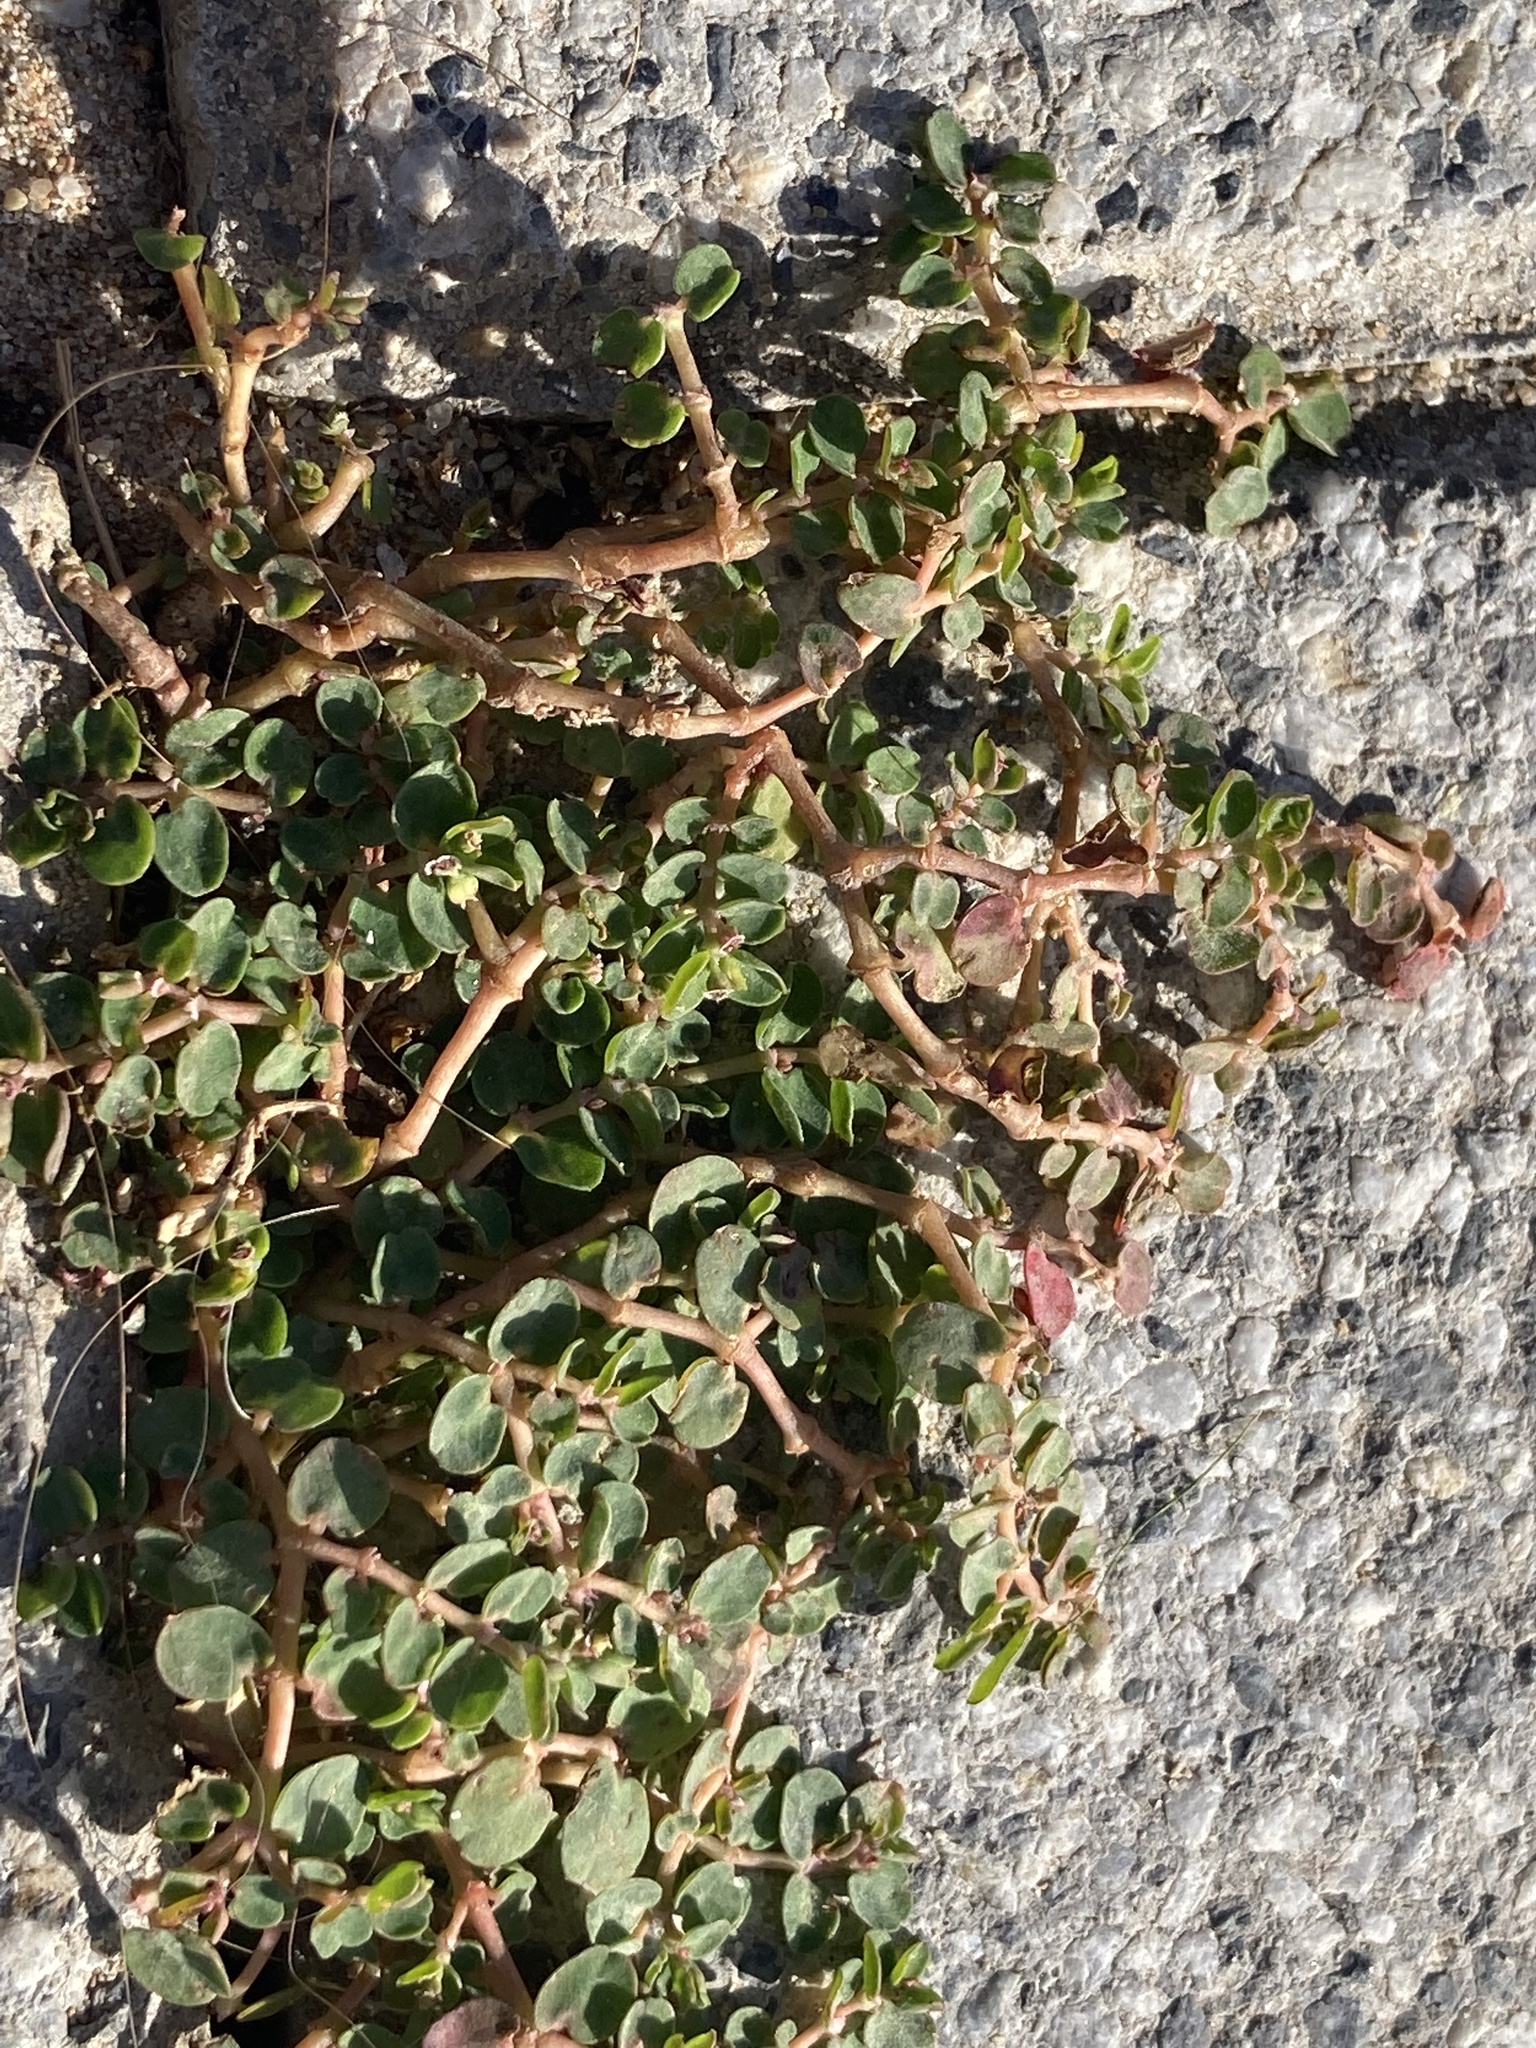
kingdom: Plantae
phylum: Tracheophyta
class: Magnoliopsida
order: Malpighiales
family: Euphorbiaceae
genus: Euphorbia
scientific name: Euphorbia serpens
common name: Matted sandmat
